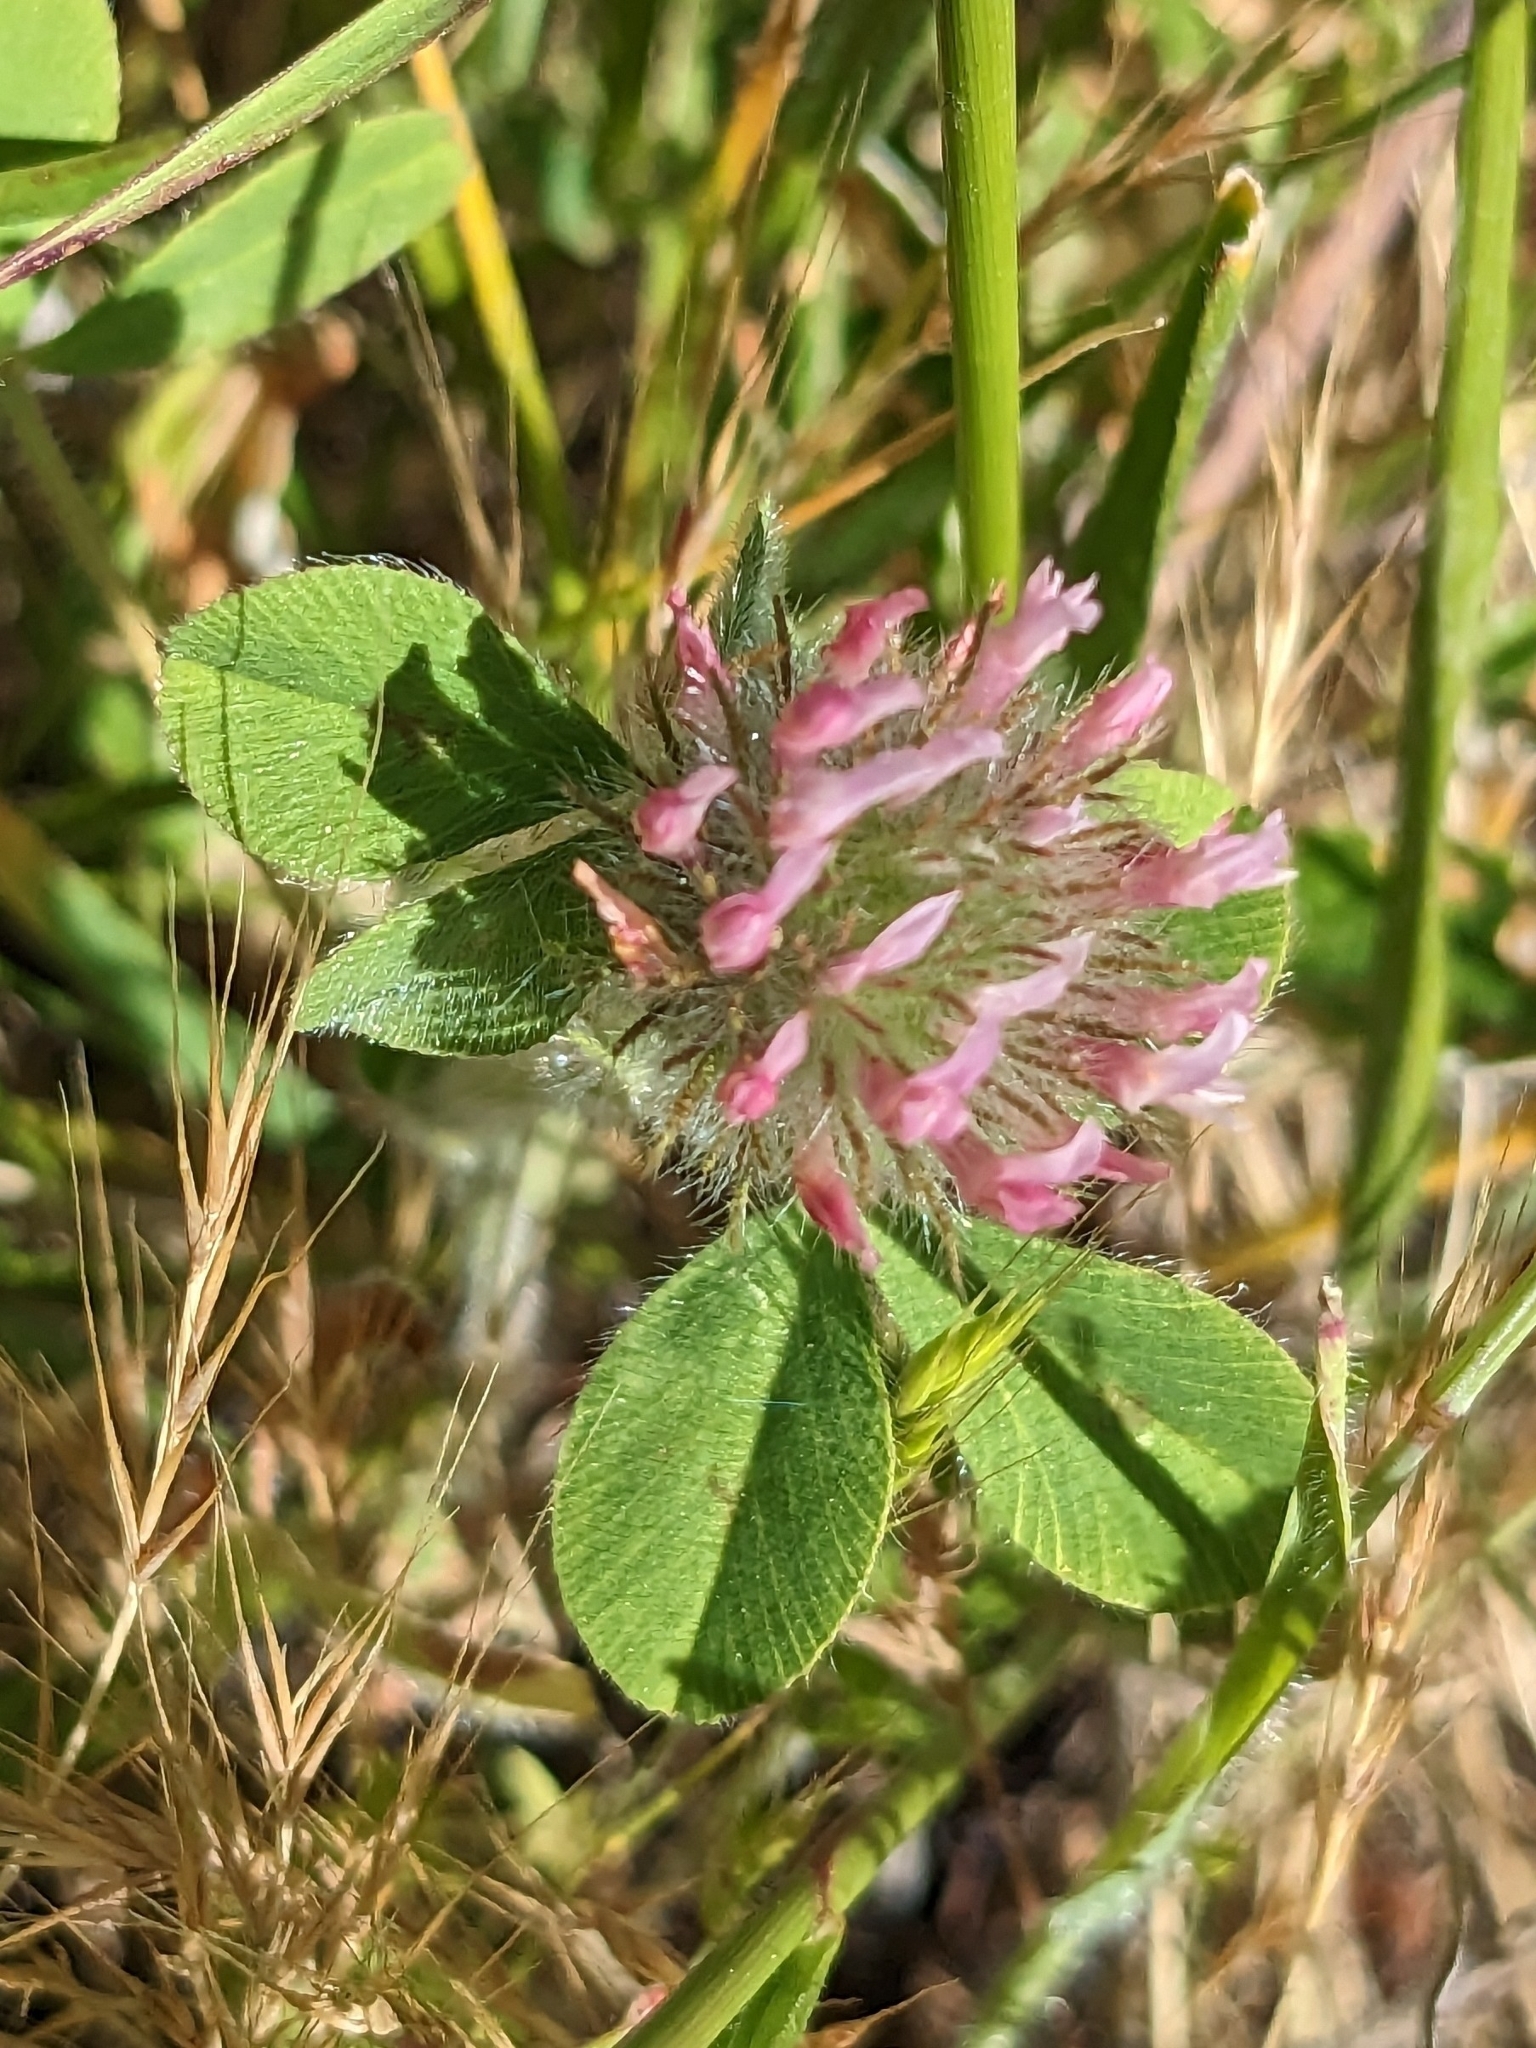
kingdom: Plantae
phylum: Tracheophyta
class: Magnoliopsida
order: Fabales
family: Fabaceae
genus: Trifolium
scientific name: Trifolium hirtum
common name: Rose clover
